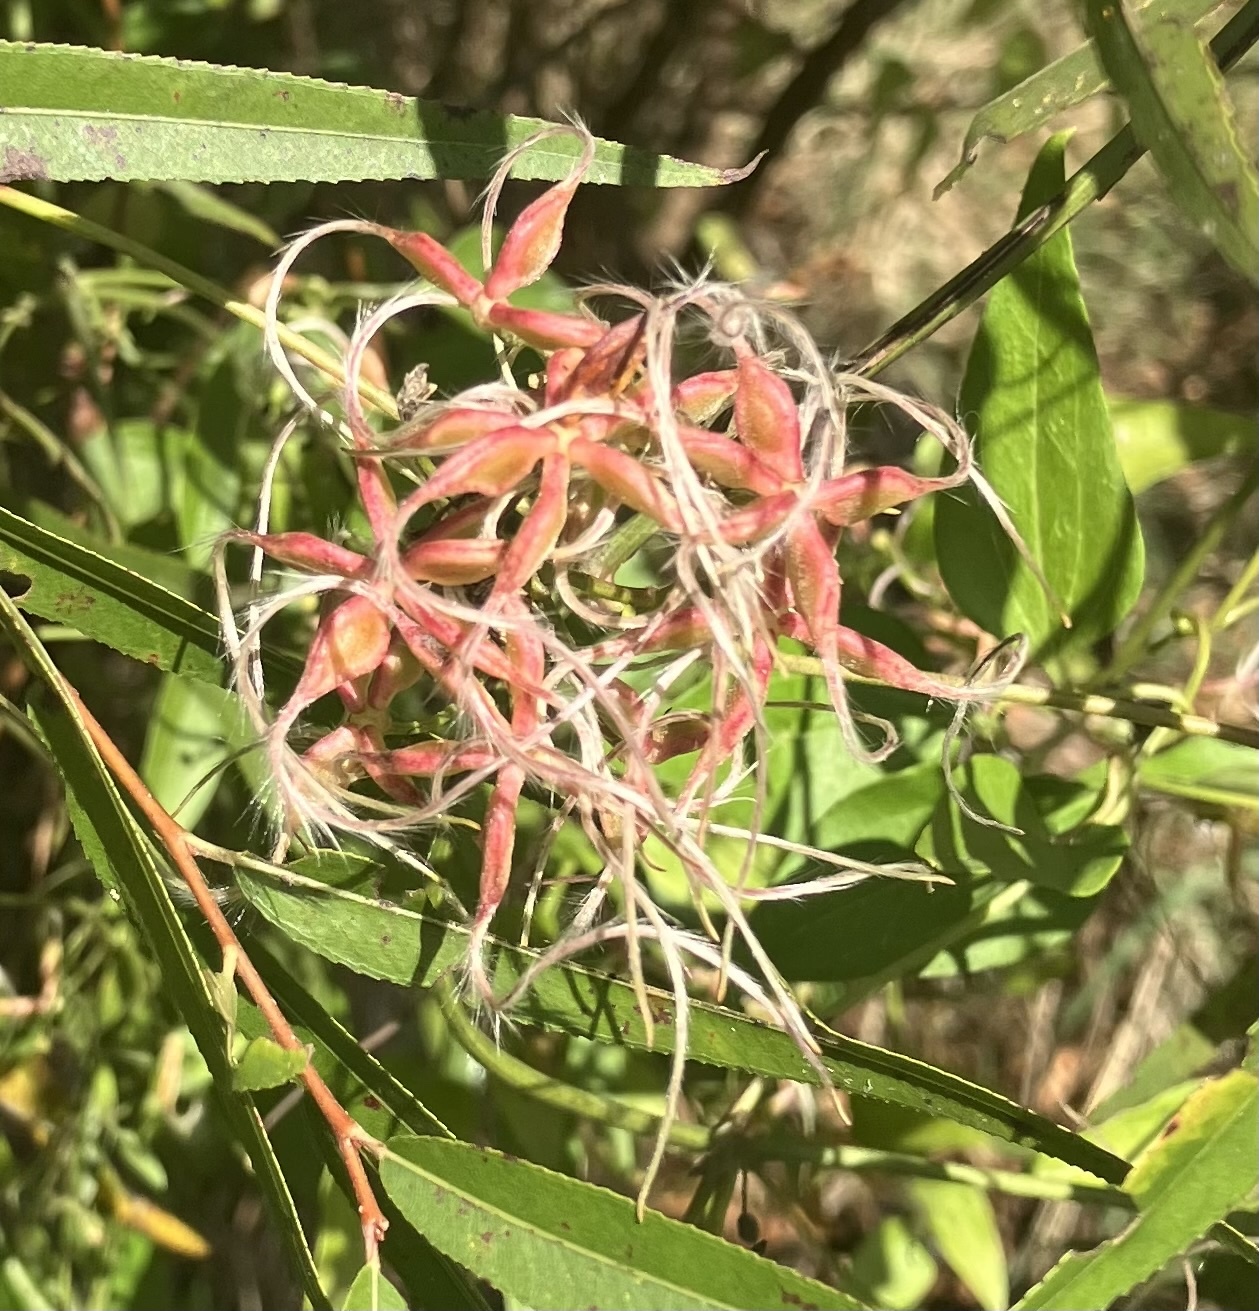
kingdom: Plantae
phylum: Tracheophyta
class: Magnoliopsida
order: Ranunculales
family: Ranunculaceae
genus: Clematis
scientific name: Clematis terniflora
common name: Sweet autumn clematis
